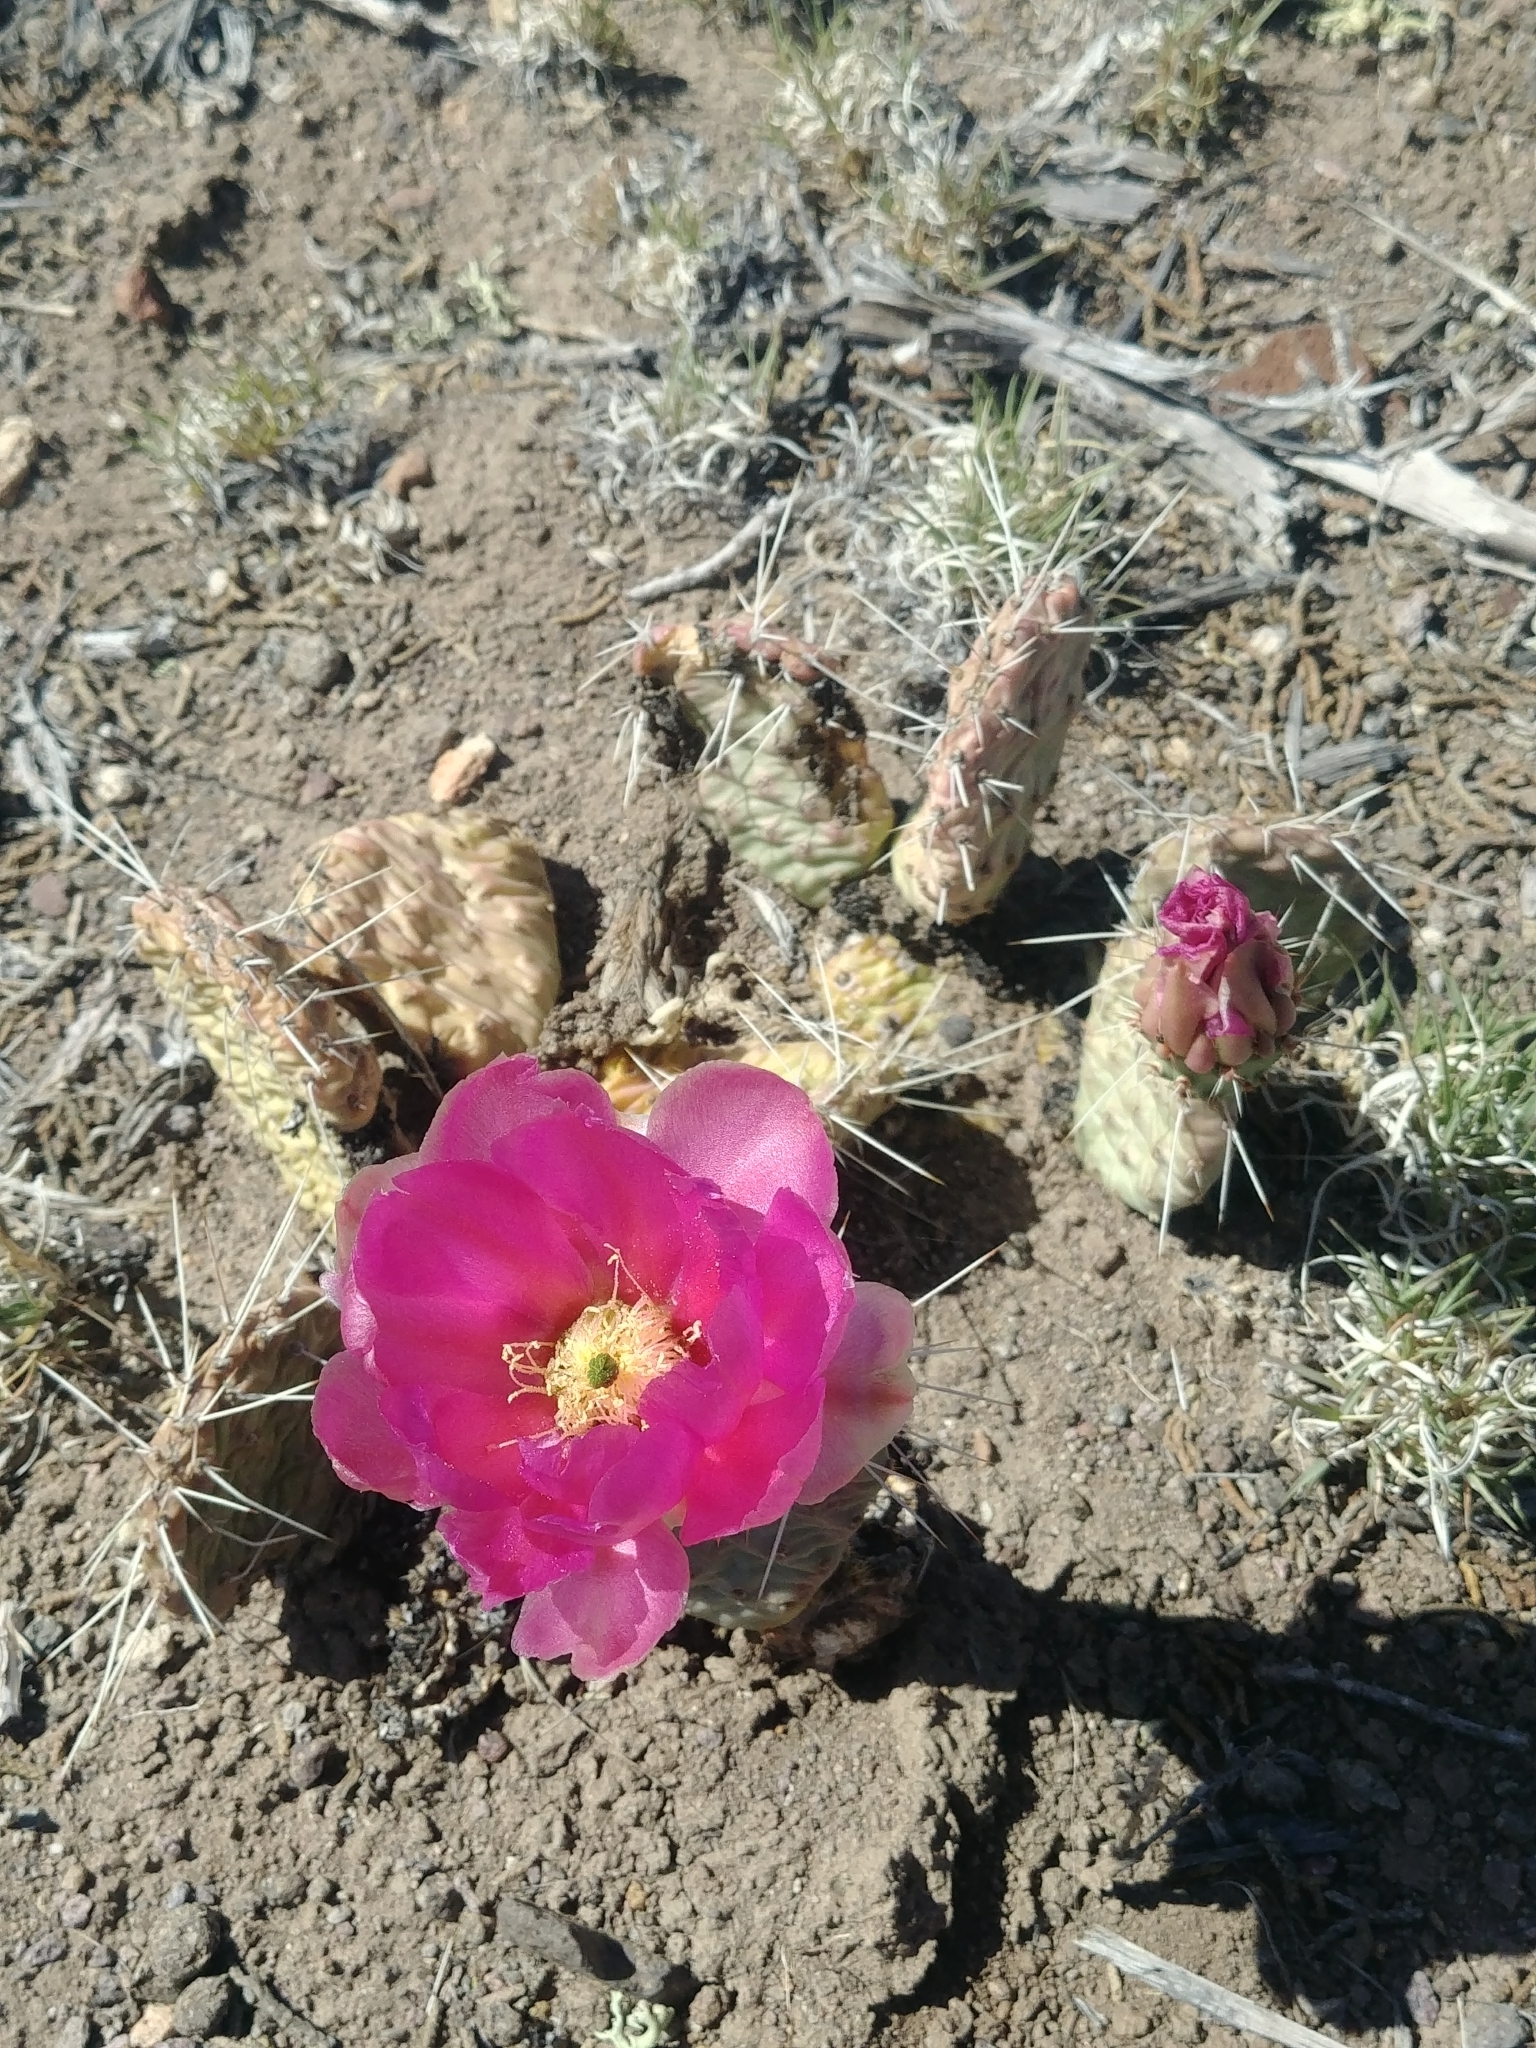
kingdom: Plantae
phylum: Tracheophyta
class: Magnoliopsida
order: Caryophyllales
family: Cactaceae
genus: Opuntia
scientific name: Opuntia polyacantha
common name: Plains prickly-pear
